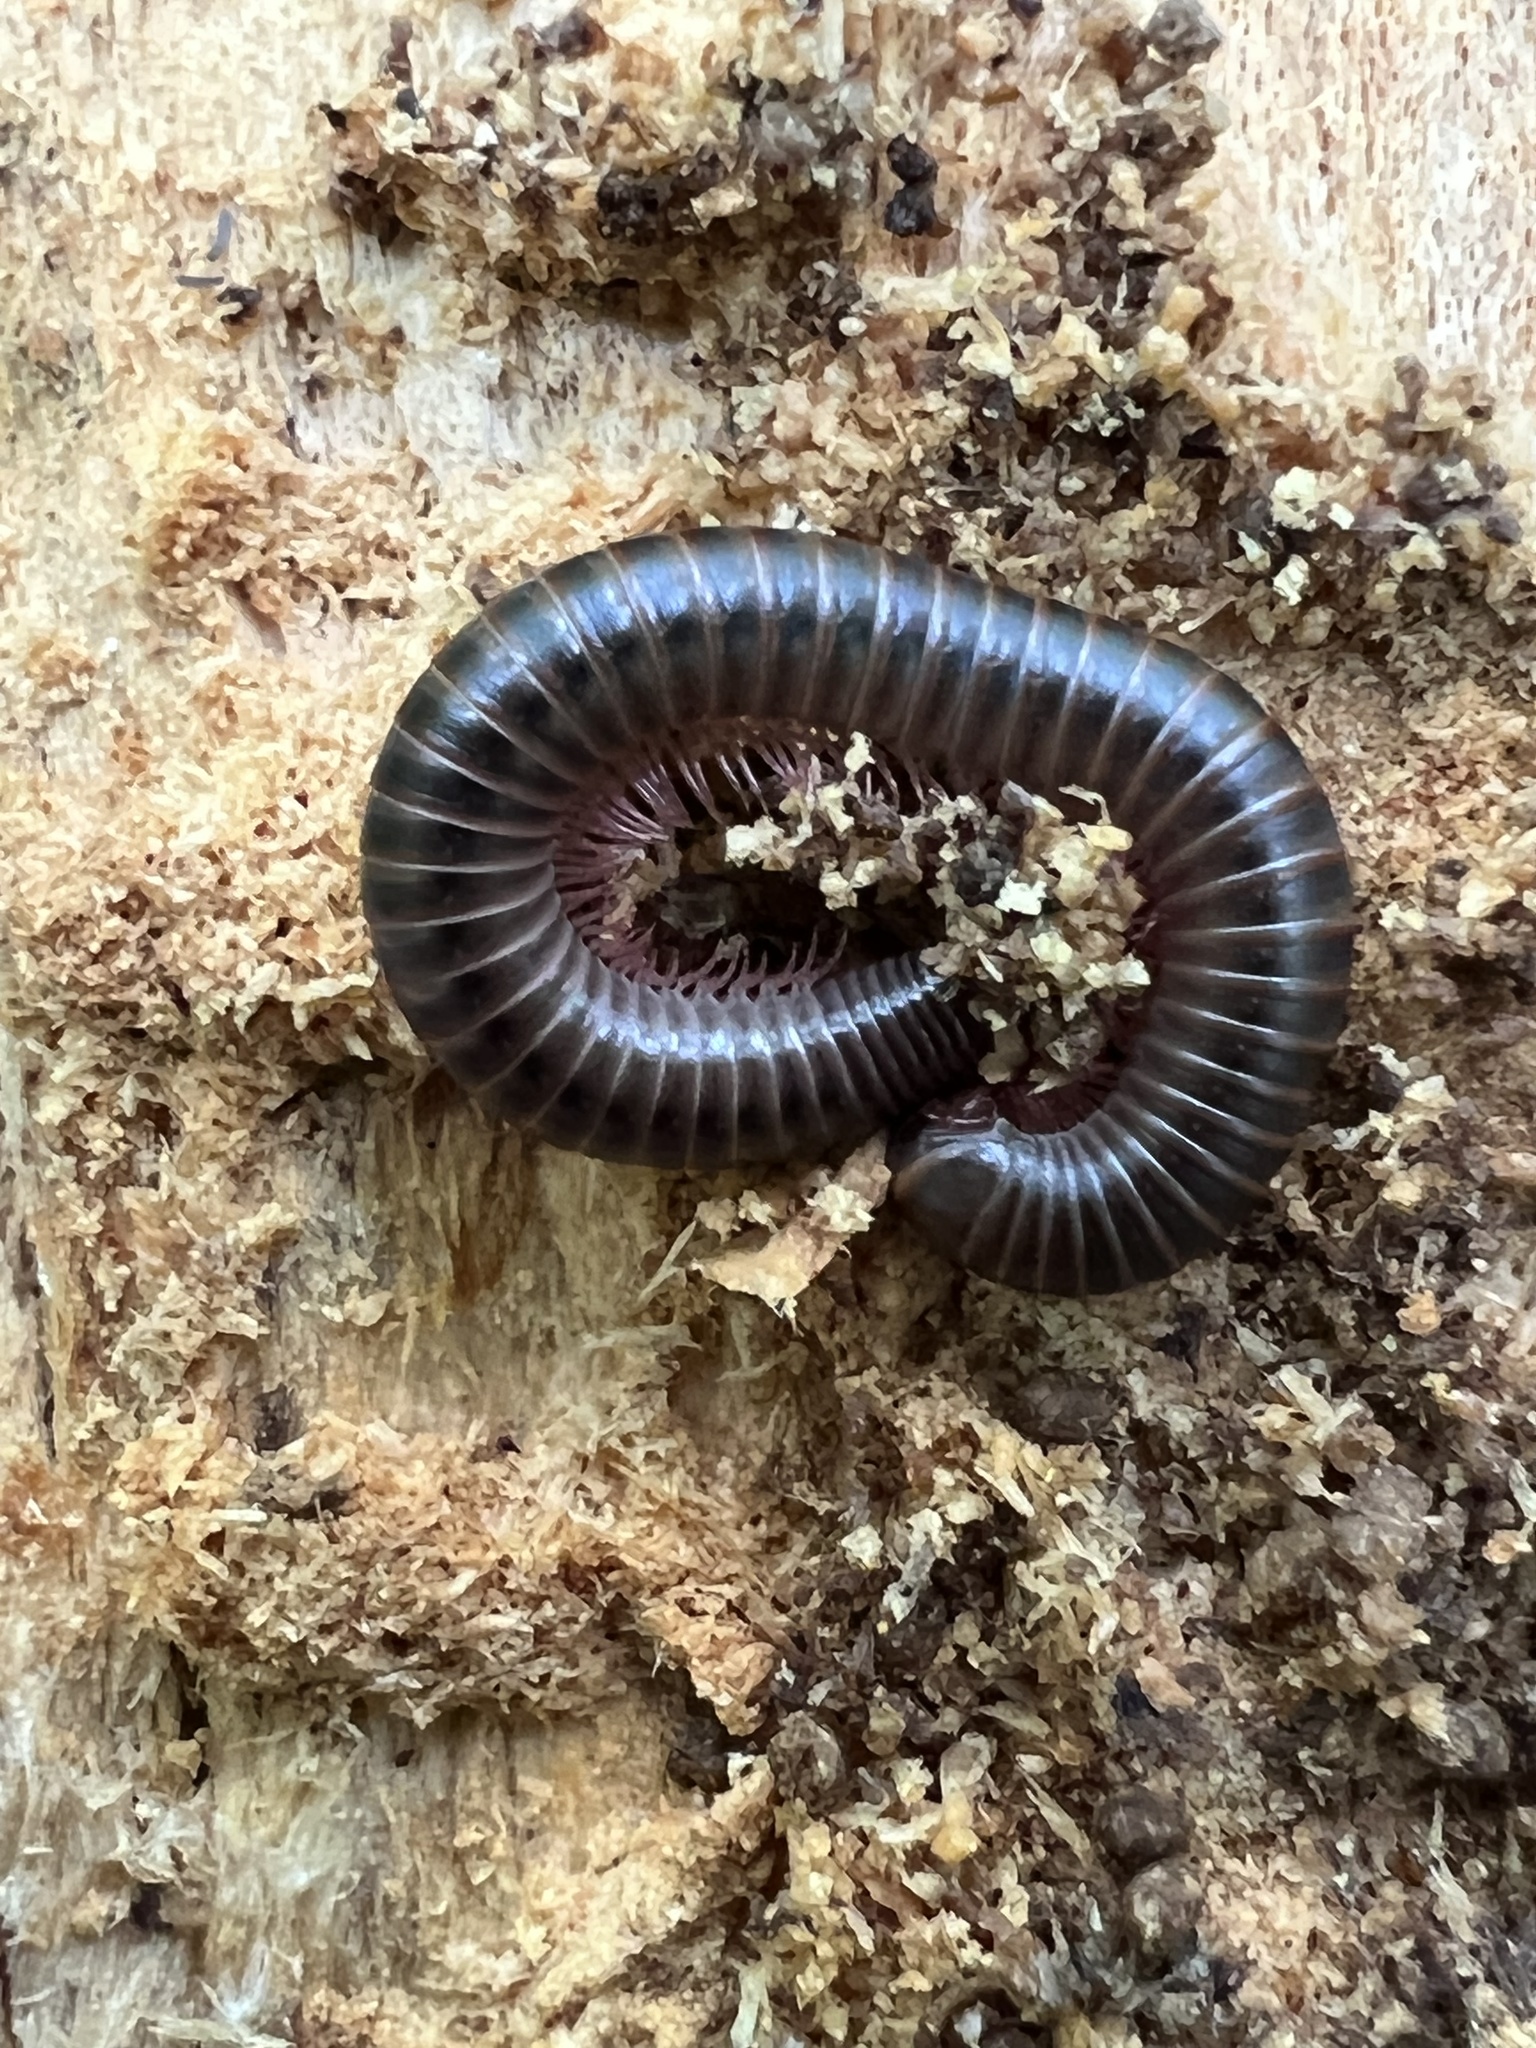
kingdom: Animalia
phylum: Arthropoda
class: Diplopoda
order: Spirobolida
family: Spirobolidae
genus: Narceus
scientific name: Narceus
